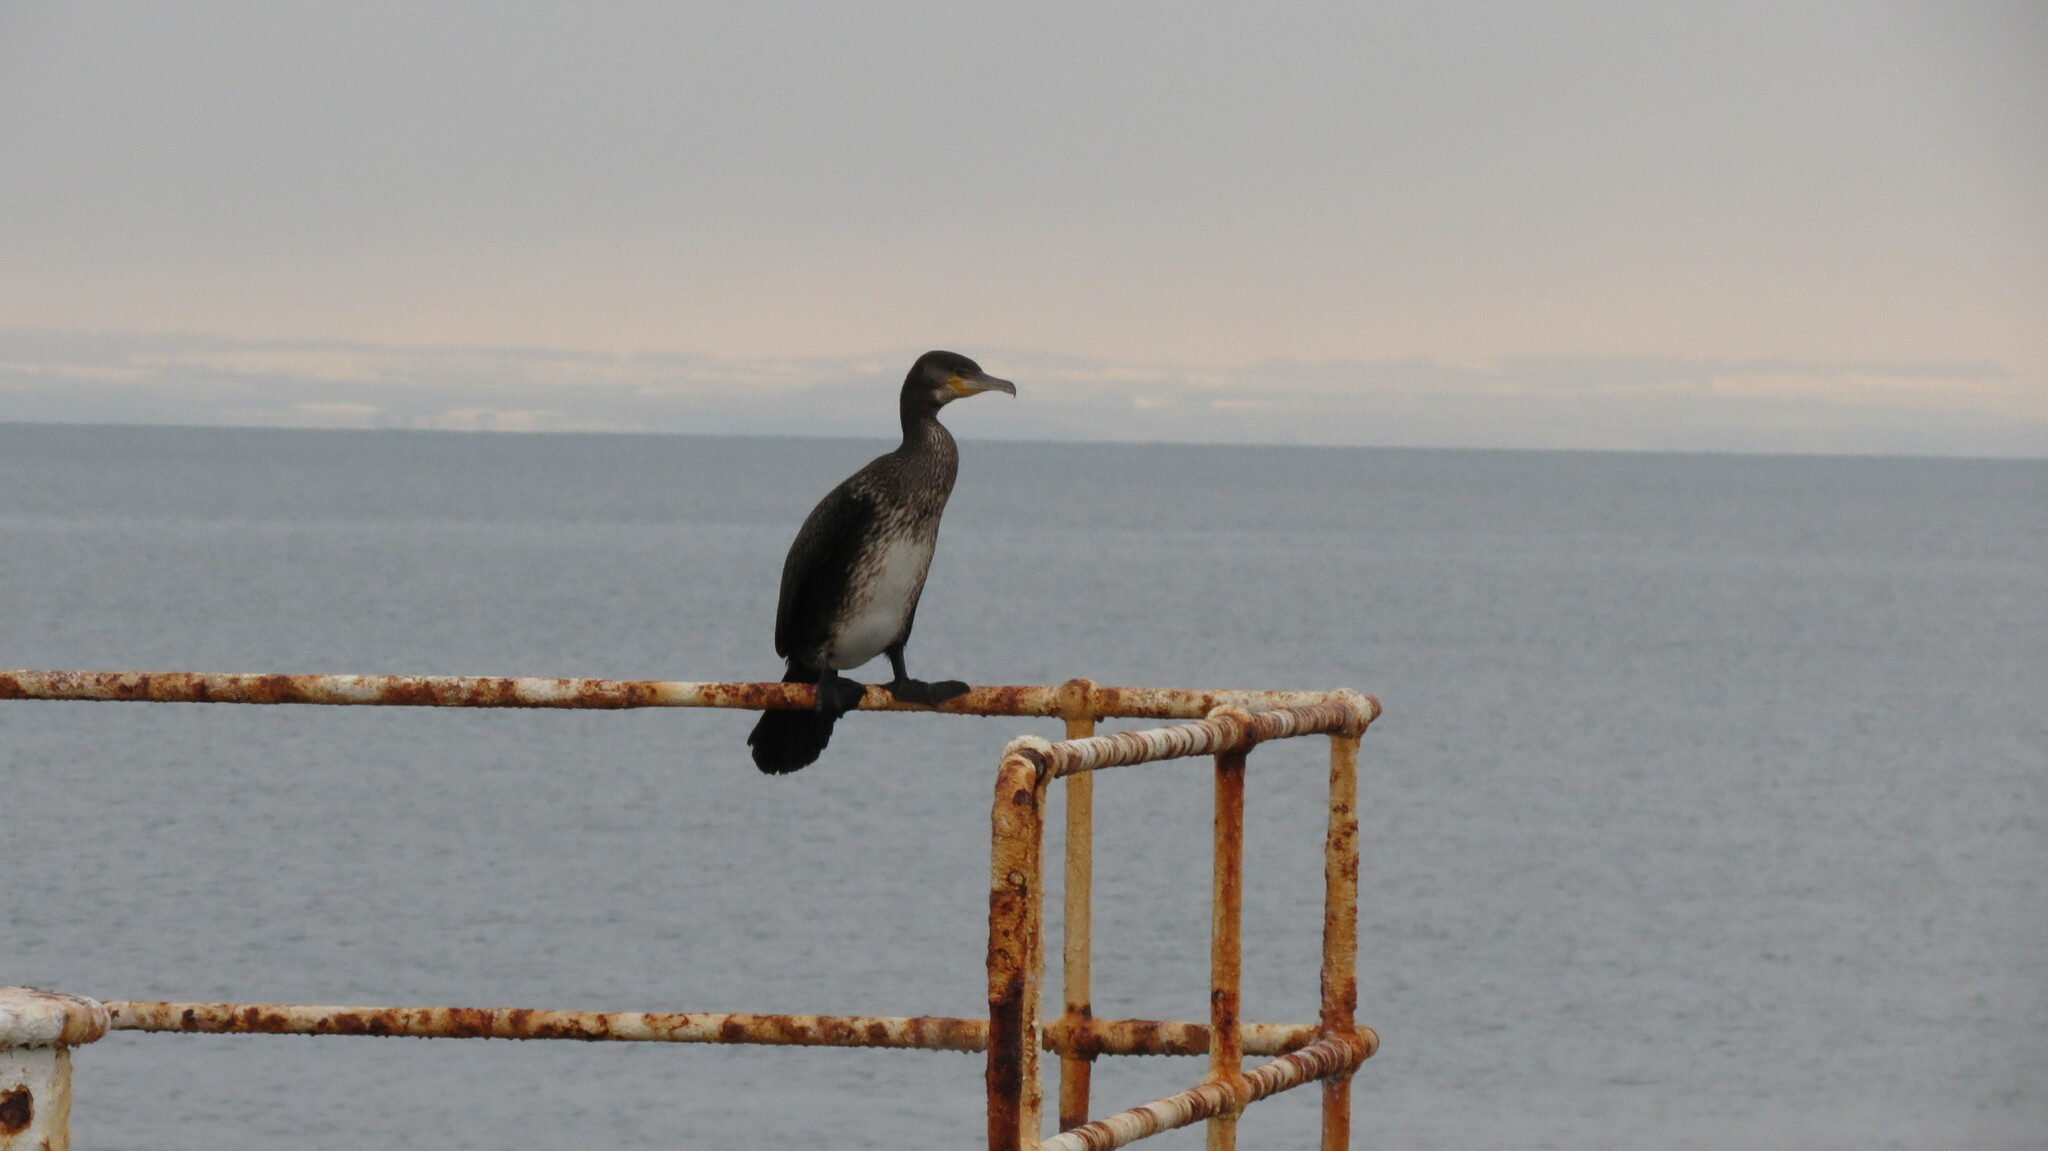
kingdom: Animalia
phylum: Chordata
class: Aves
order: Suliformes
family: Phalacrocoracidae
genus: Phalacrocorax
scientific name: Phalacrocorax carbo
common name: Great cormorant
